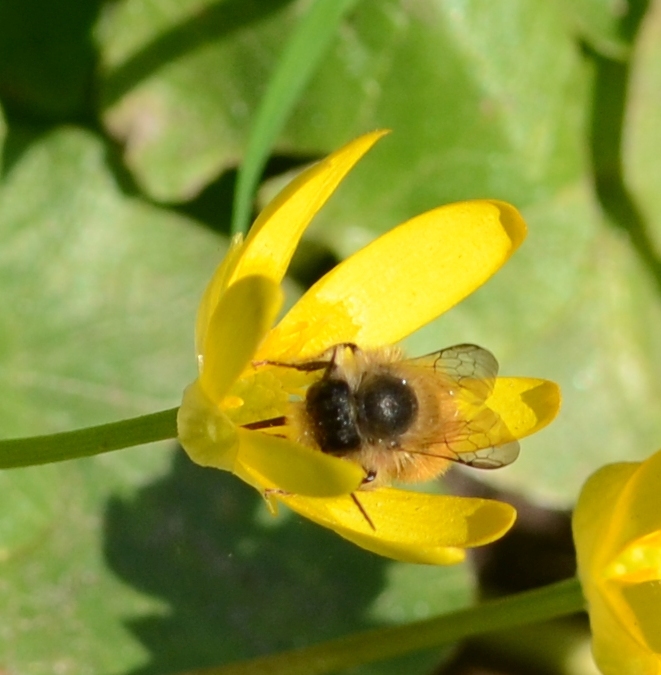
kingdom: Animalia
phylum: Arthropoda
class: Insecta
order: Hymenoptera
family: Megachilidae
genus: Osmia
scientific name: Osmia bicornis
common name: Red mason bee
